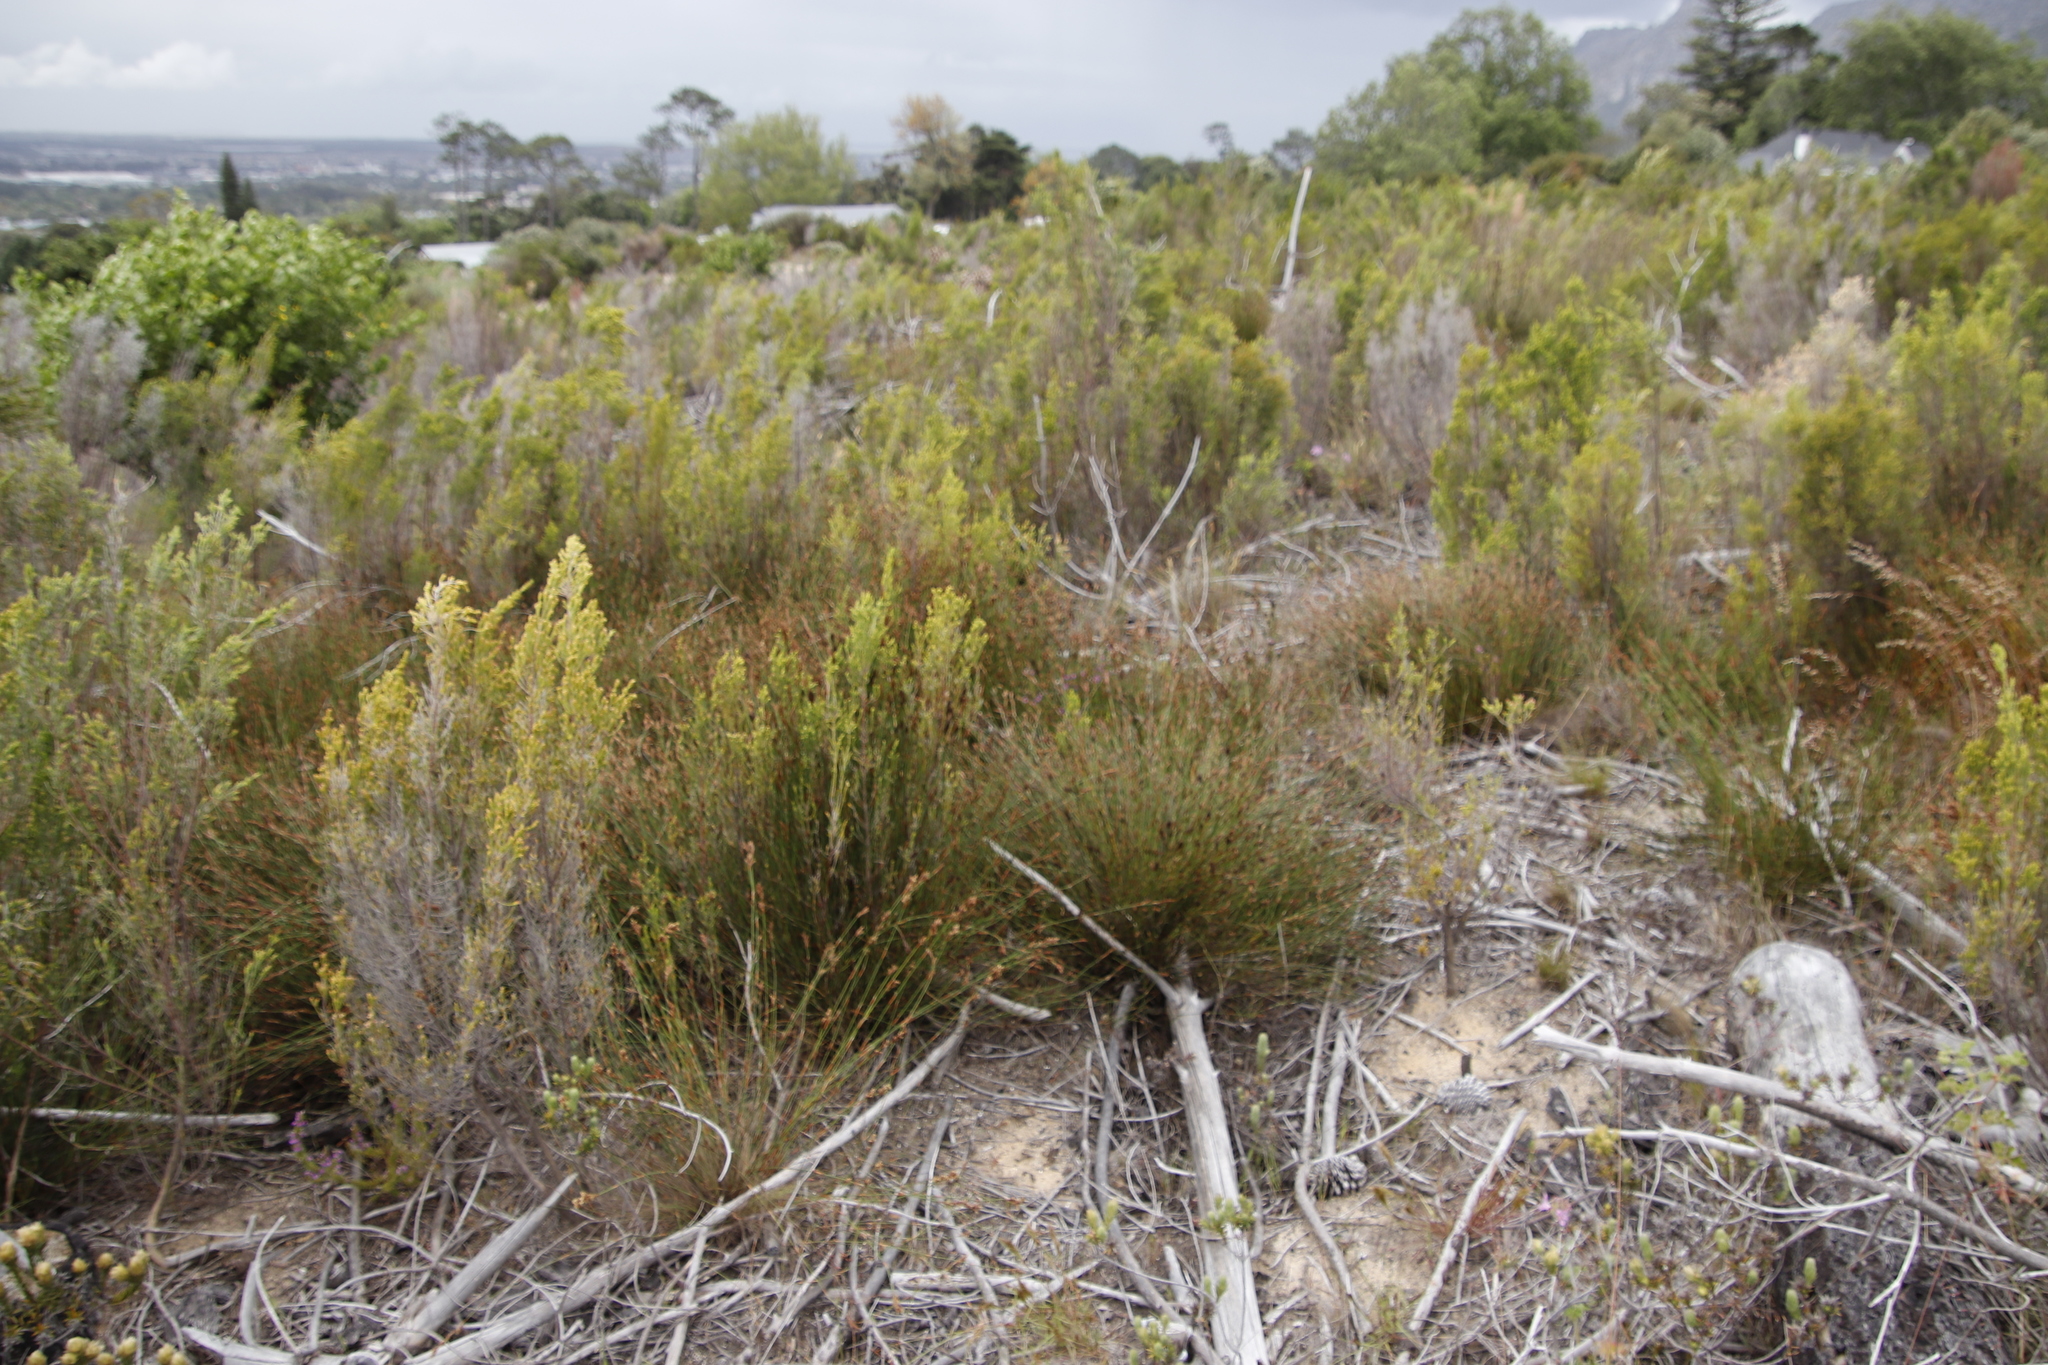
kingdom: Plantae
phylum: Tracheophyta
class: Liliopsida
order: Poales
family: Restionaceae
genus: Restio
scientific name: Restio capensis
